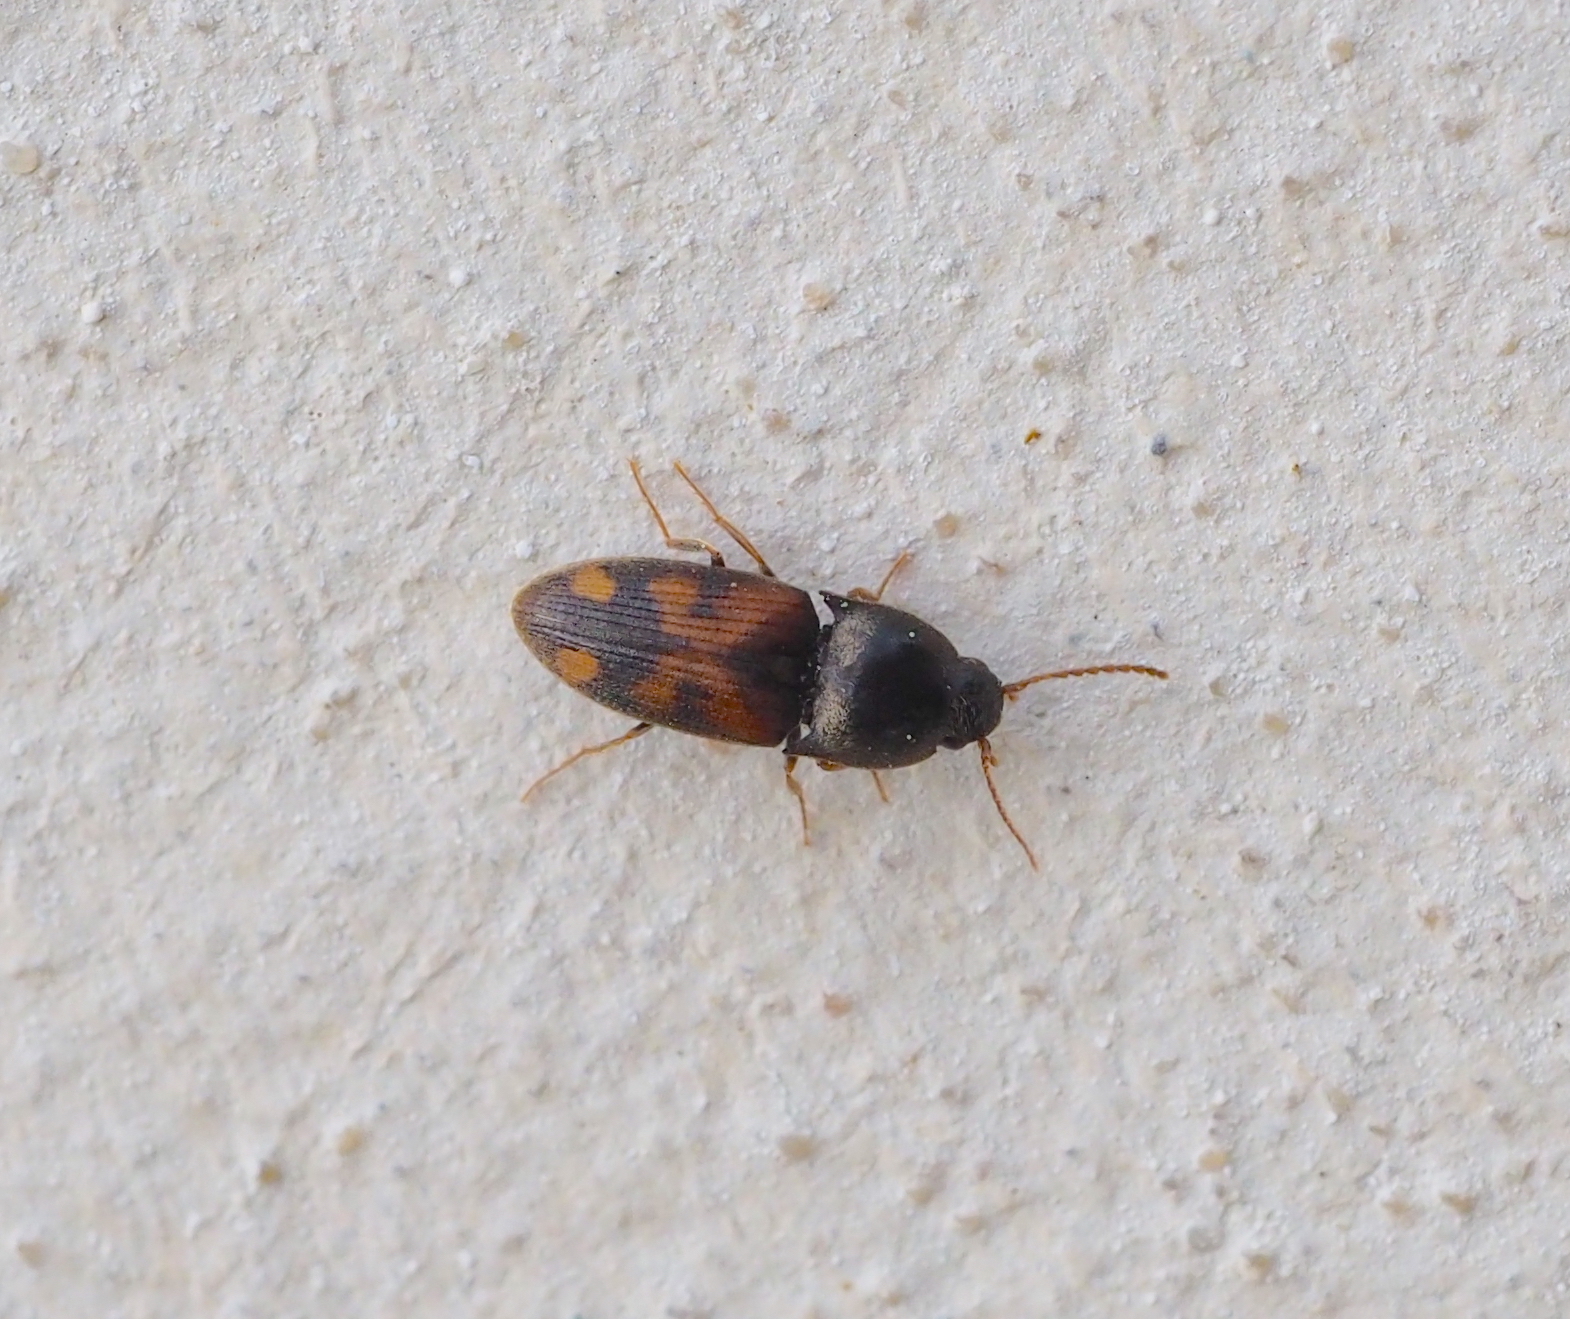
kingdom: Animalia
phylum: Arthropoda
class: Insecta
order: Coleoptera
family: Elateridae
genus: Drasterius
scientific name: Drasterius bimaculatus
